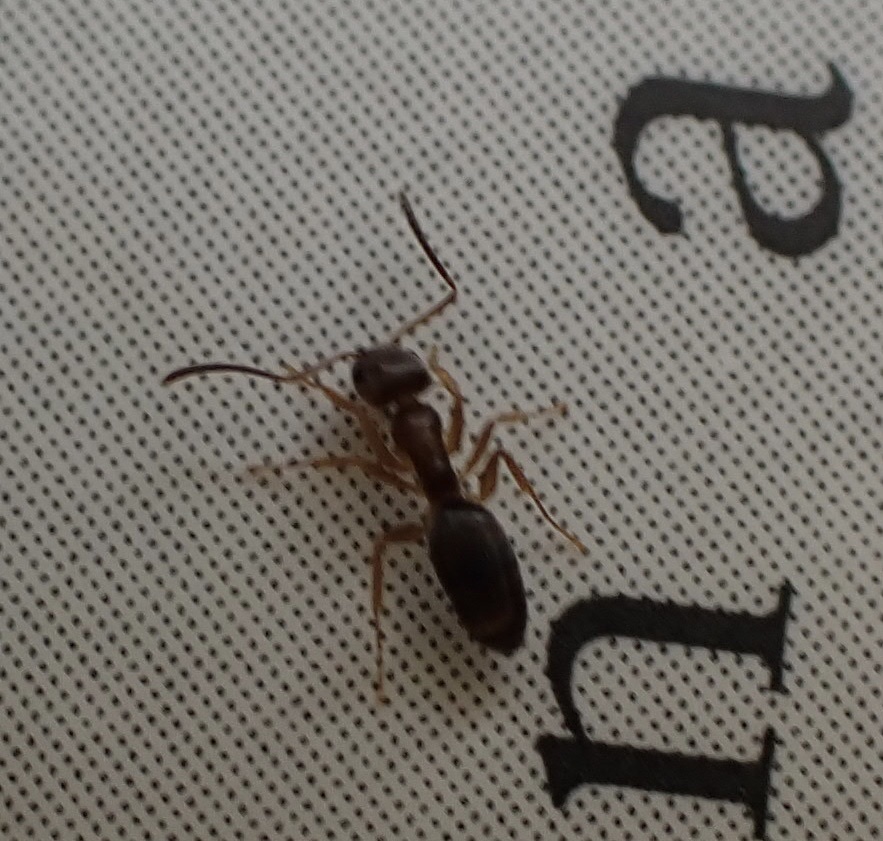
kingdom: Animalia
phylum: Arthropoda
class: Insecta
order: Hymenoptera
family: Formicidae
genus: Tapinoma
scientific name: Tapinoma sessile
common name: Odorous house ant
